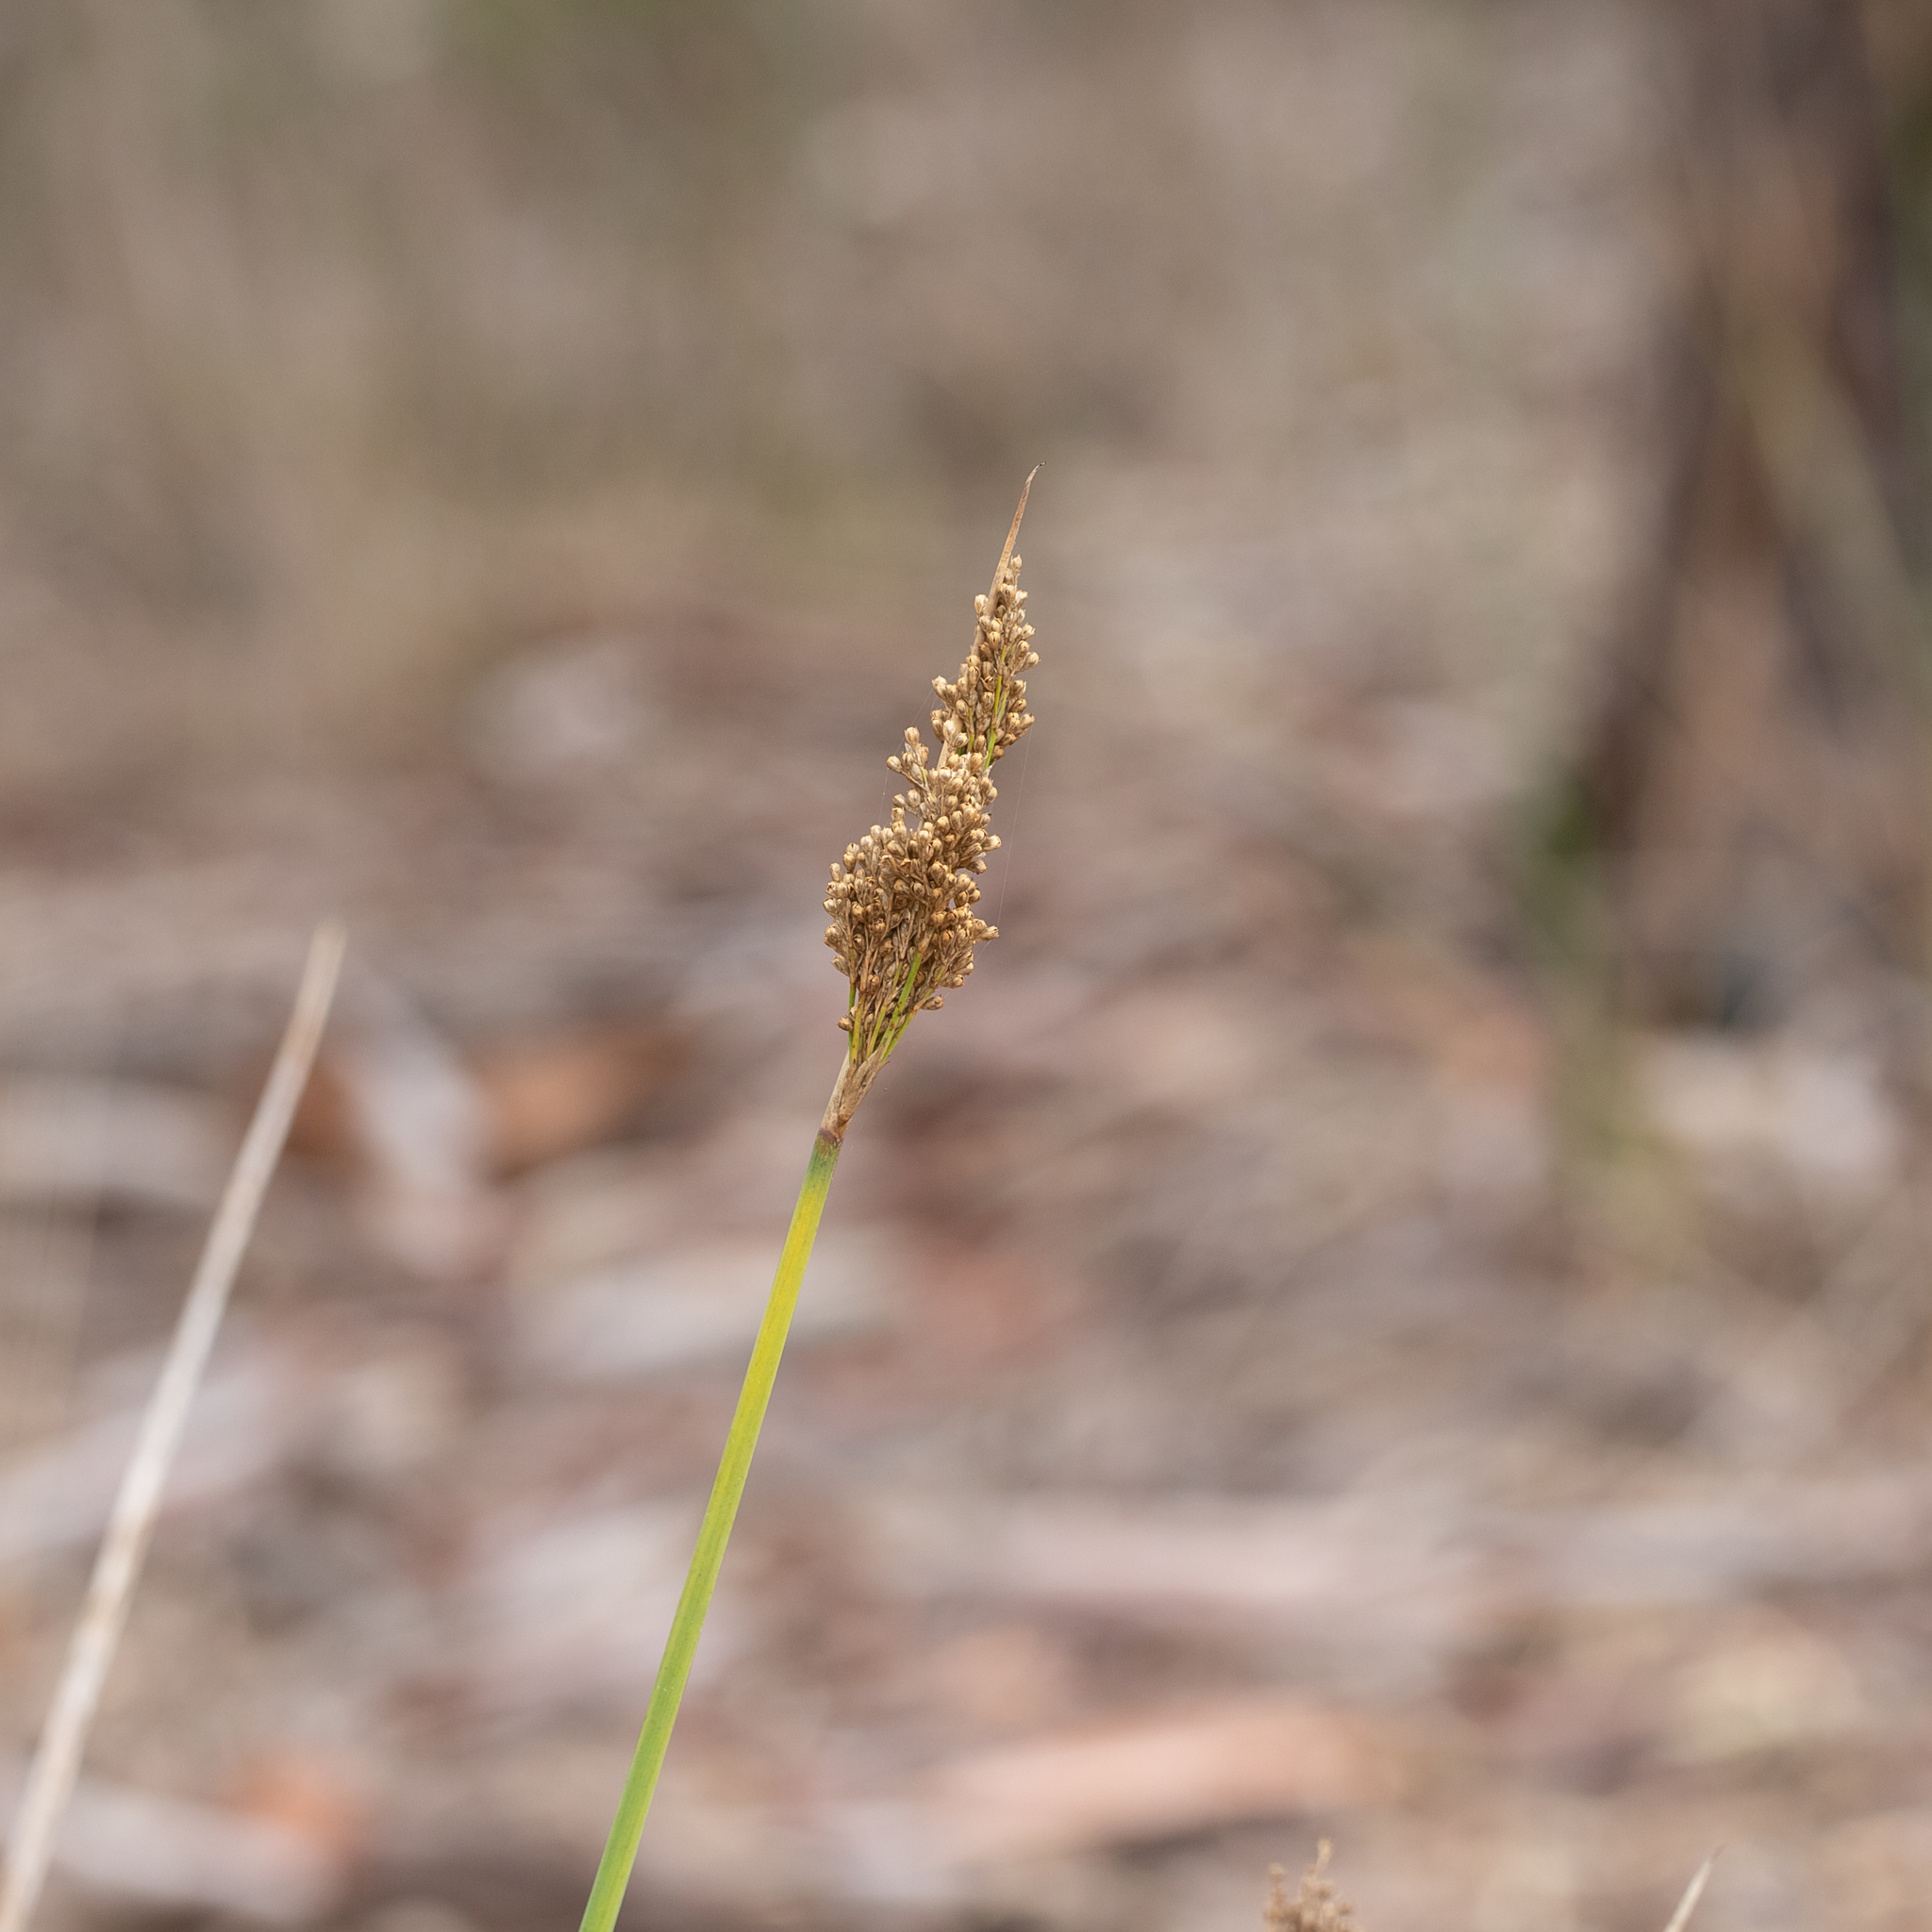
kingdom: Plantae
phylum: Tracheophyta
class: Liliopsida
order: Poales
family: Juncaceae
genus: Juncus
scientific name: Juncus pallidus
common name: Great soft-rush
